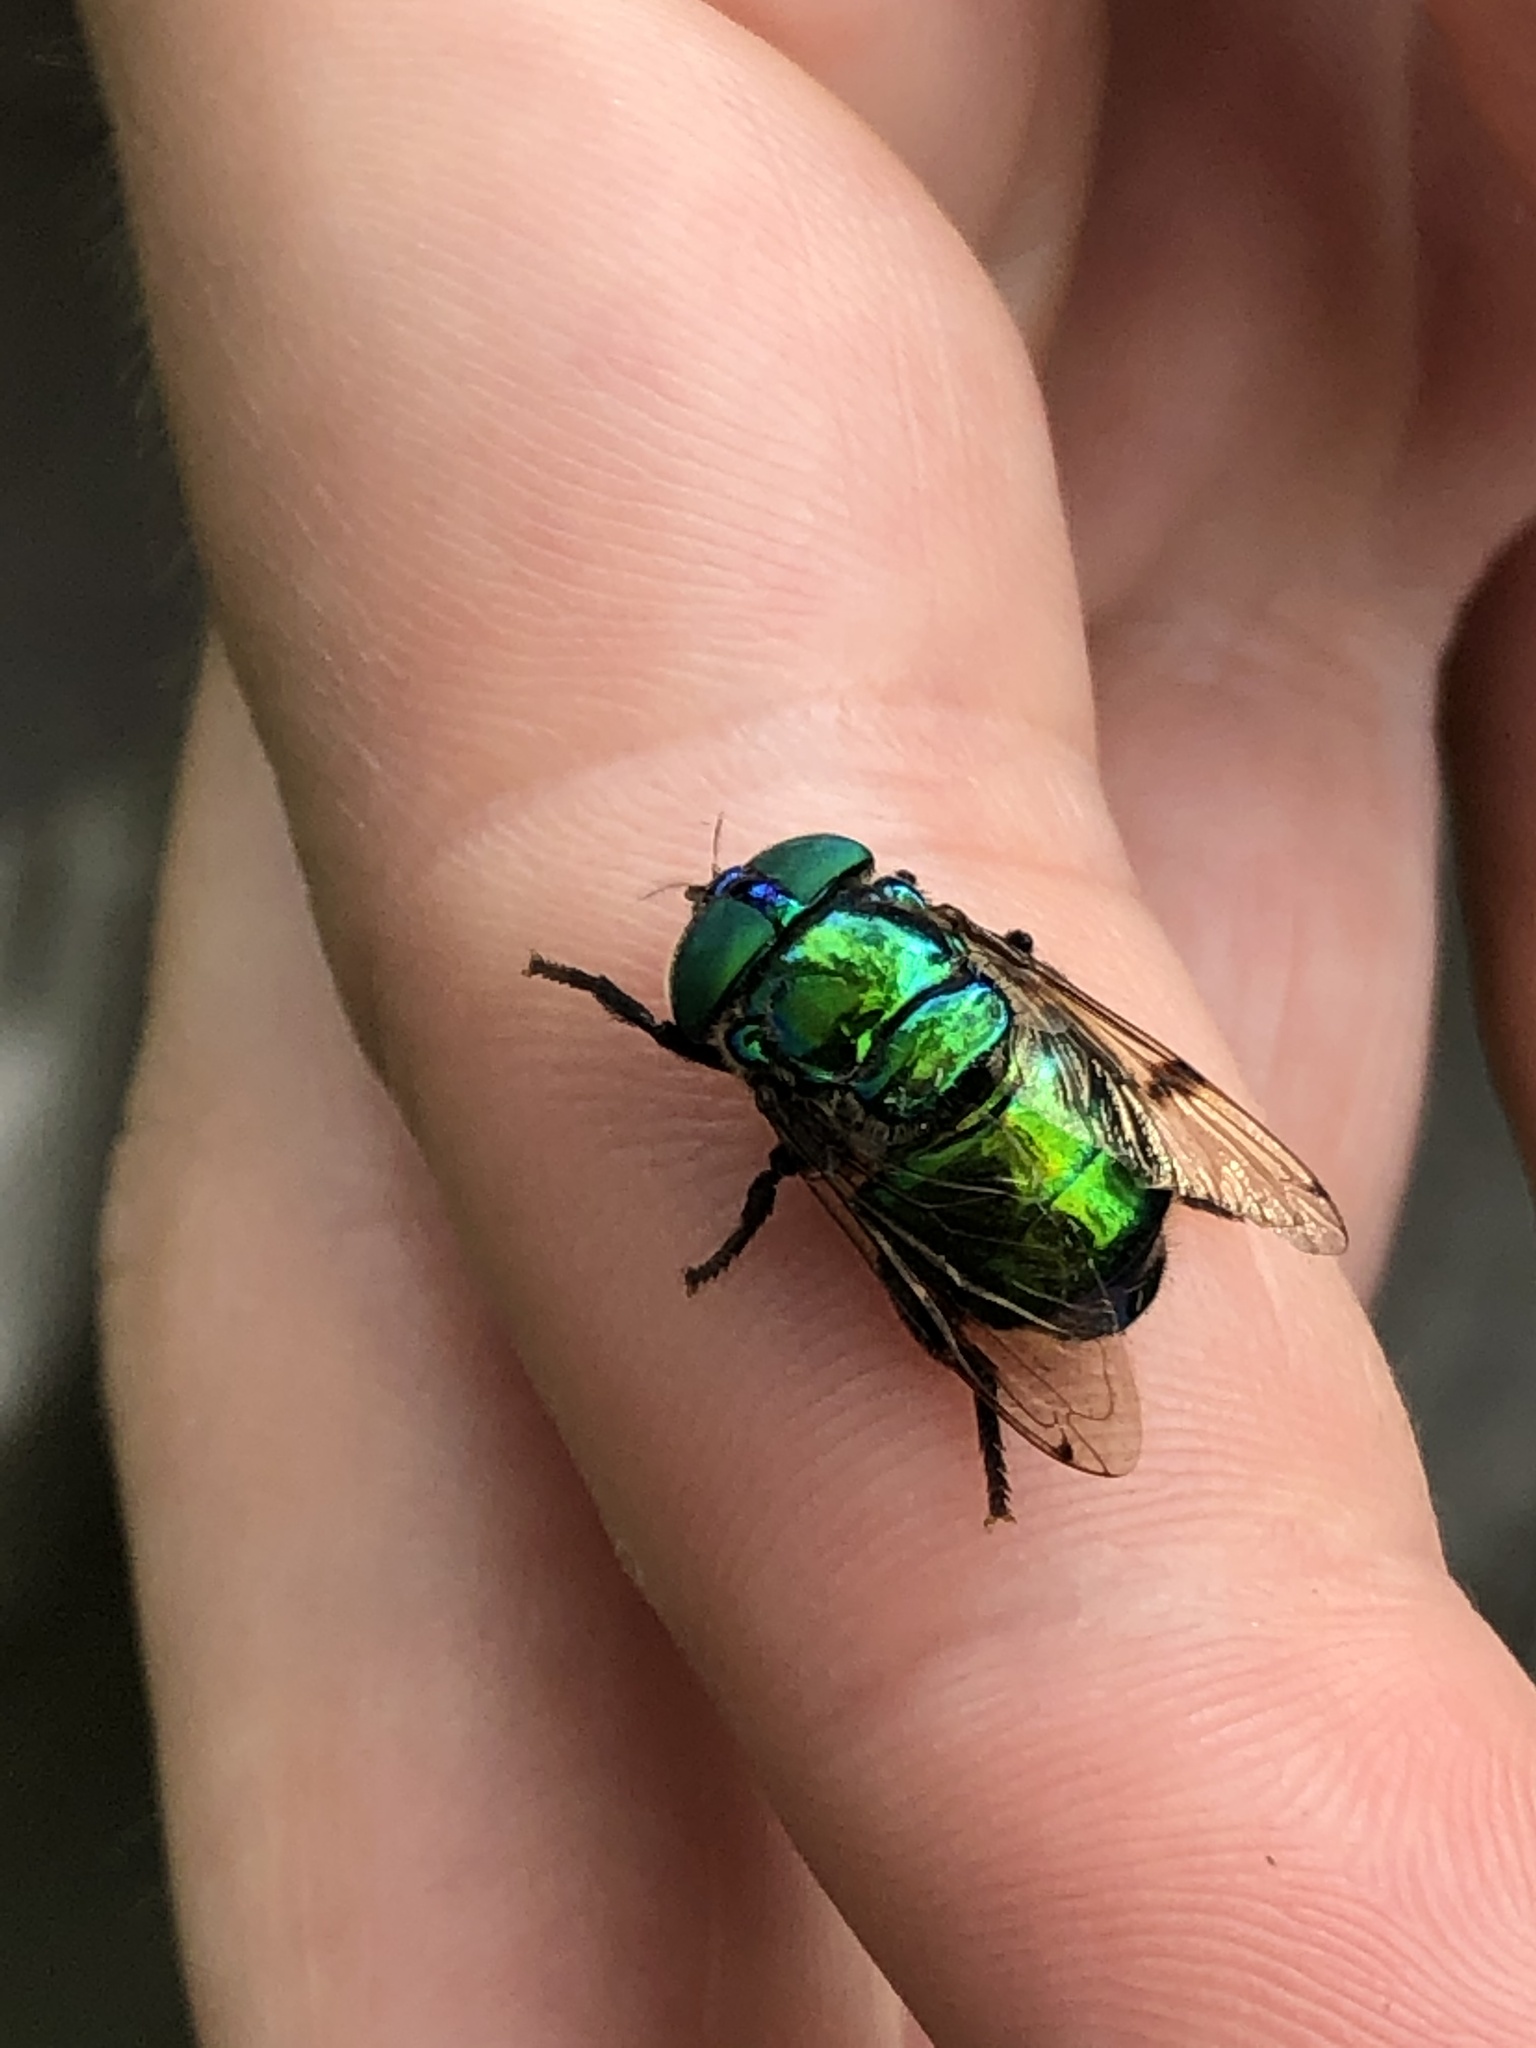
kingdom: Animalia
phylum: Arthropoda
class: Insecta
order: Diptera
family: Syrphidae
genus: Ornidia
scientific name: Ornidia major
